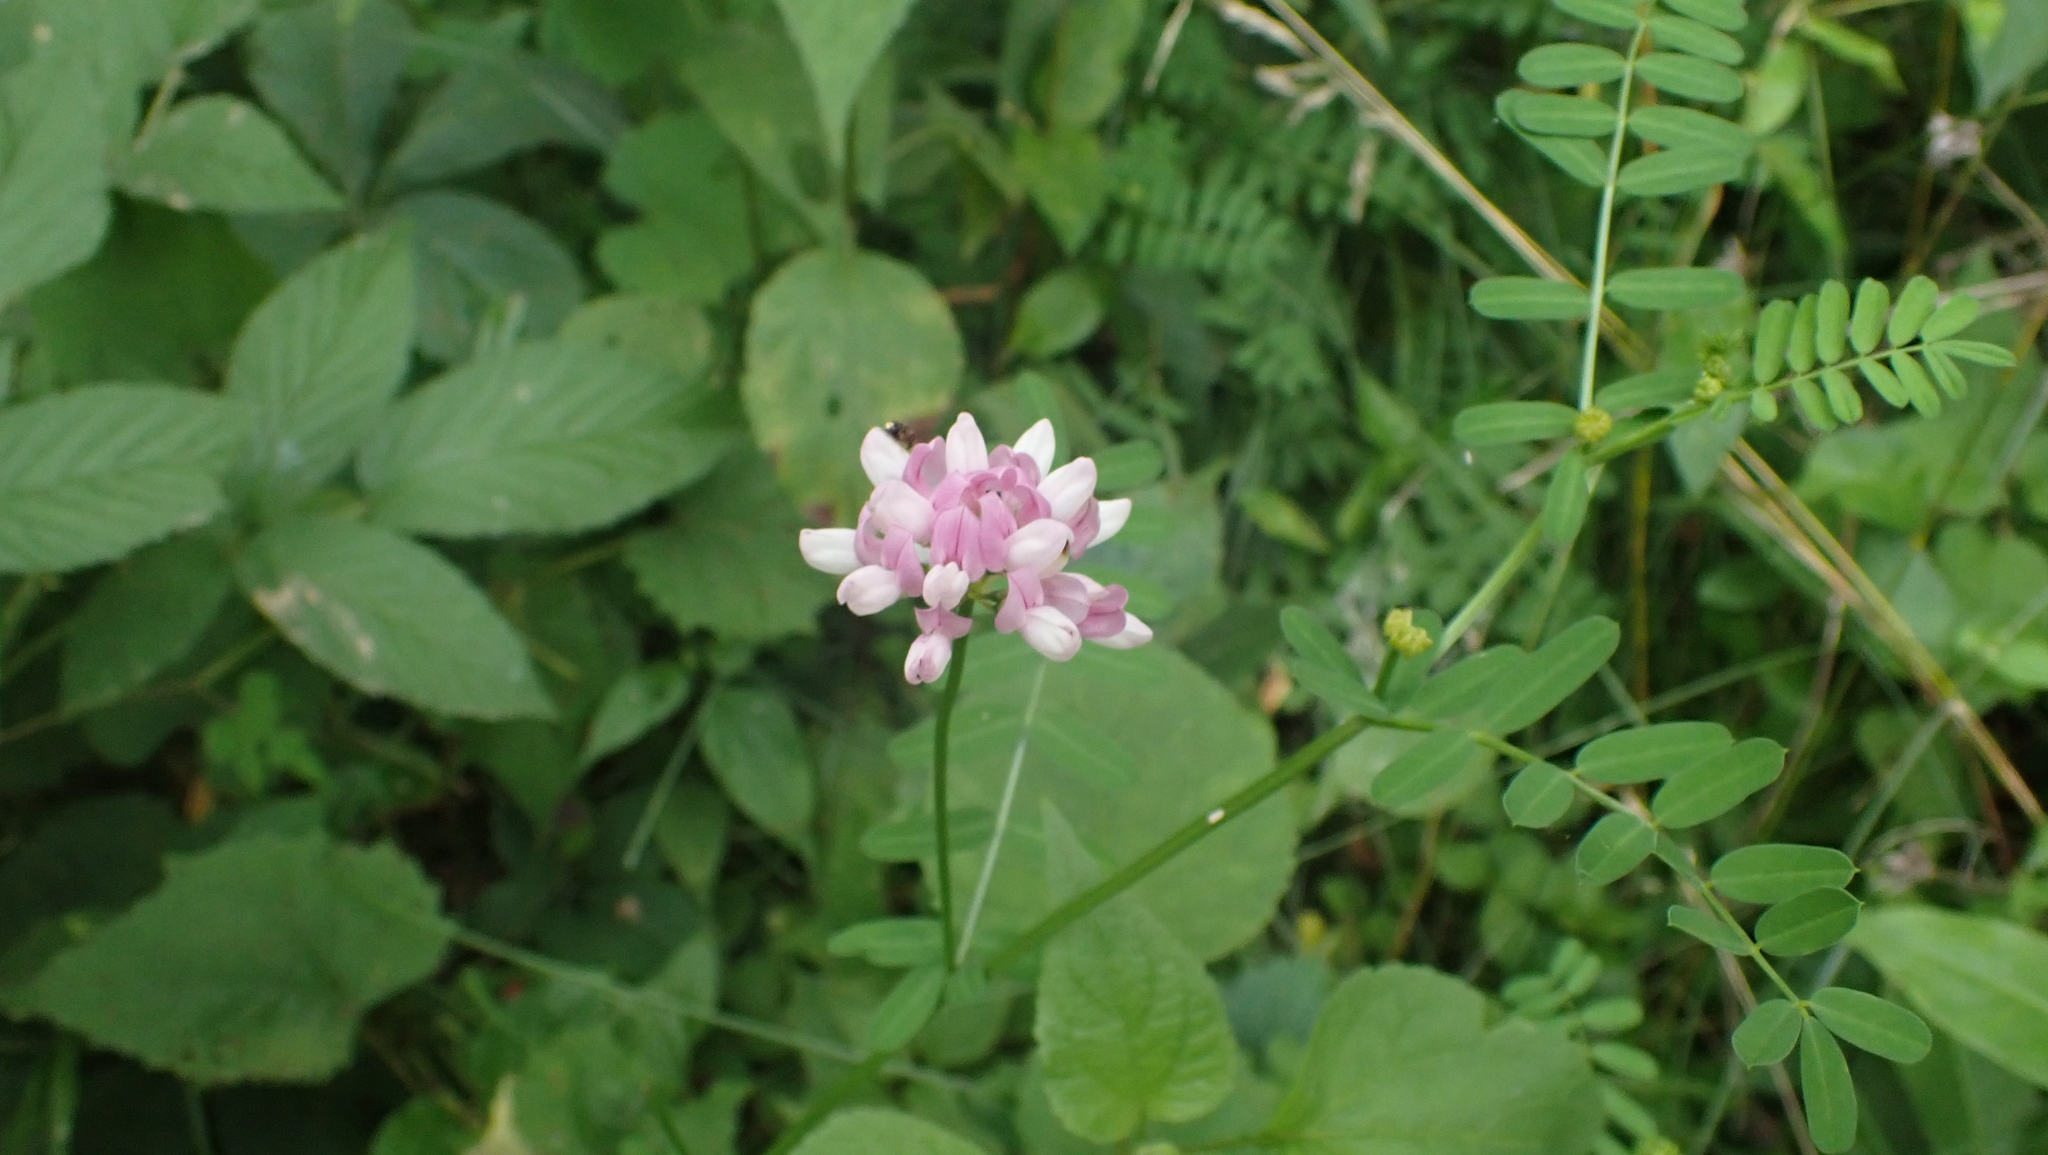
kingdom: Plantae
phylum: Tracheophyta
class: Magnoliopsida
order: Fabales
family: Fabaceae
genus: Coronilla
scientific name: Coronilla varia
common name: Crownvetch
